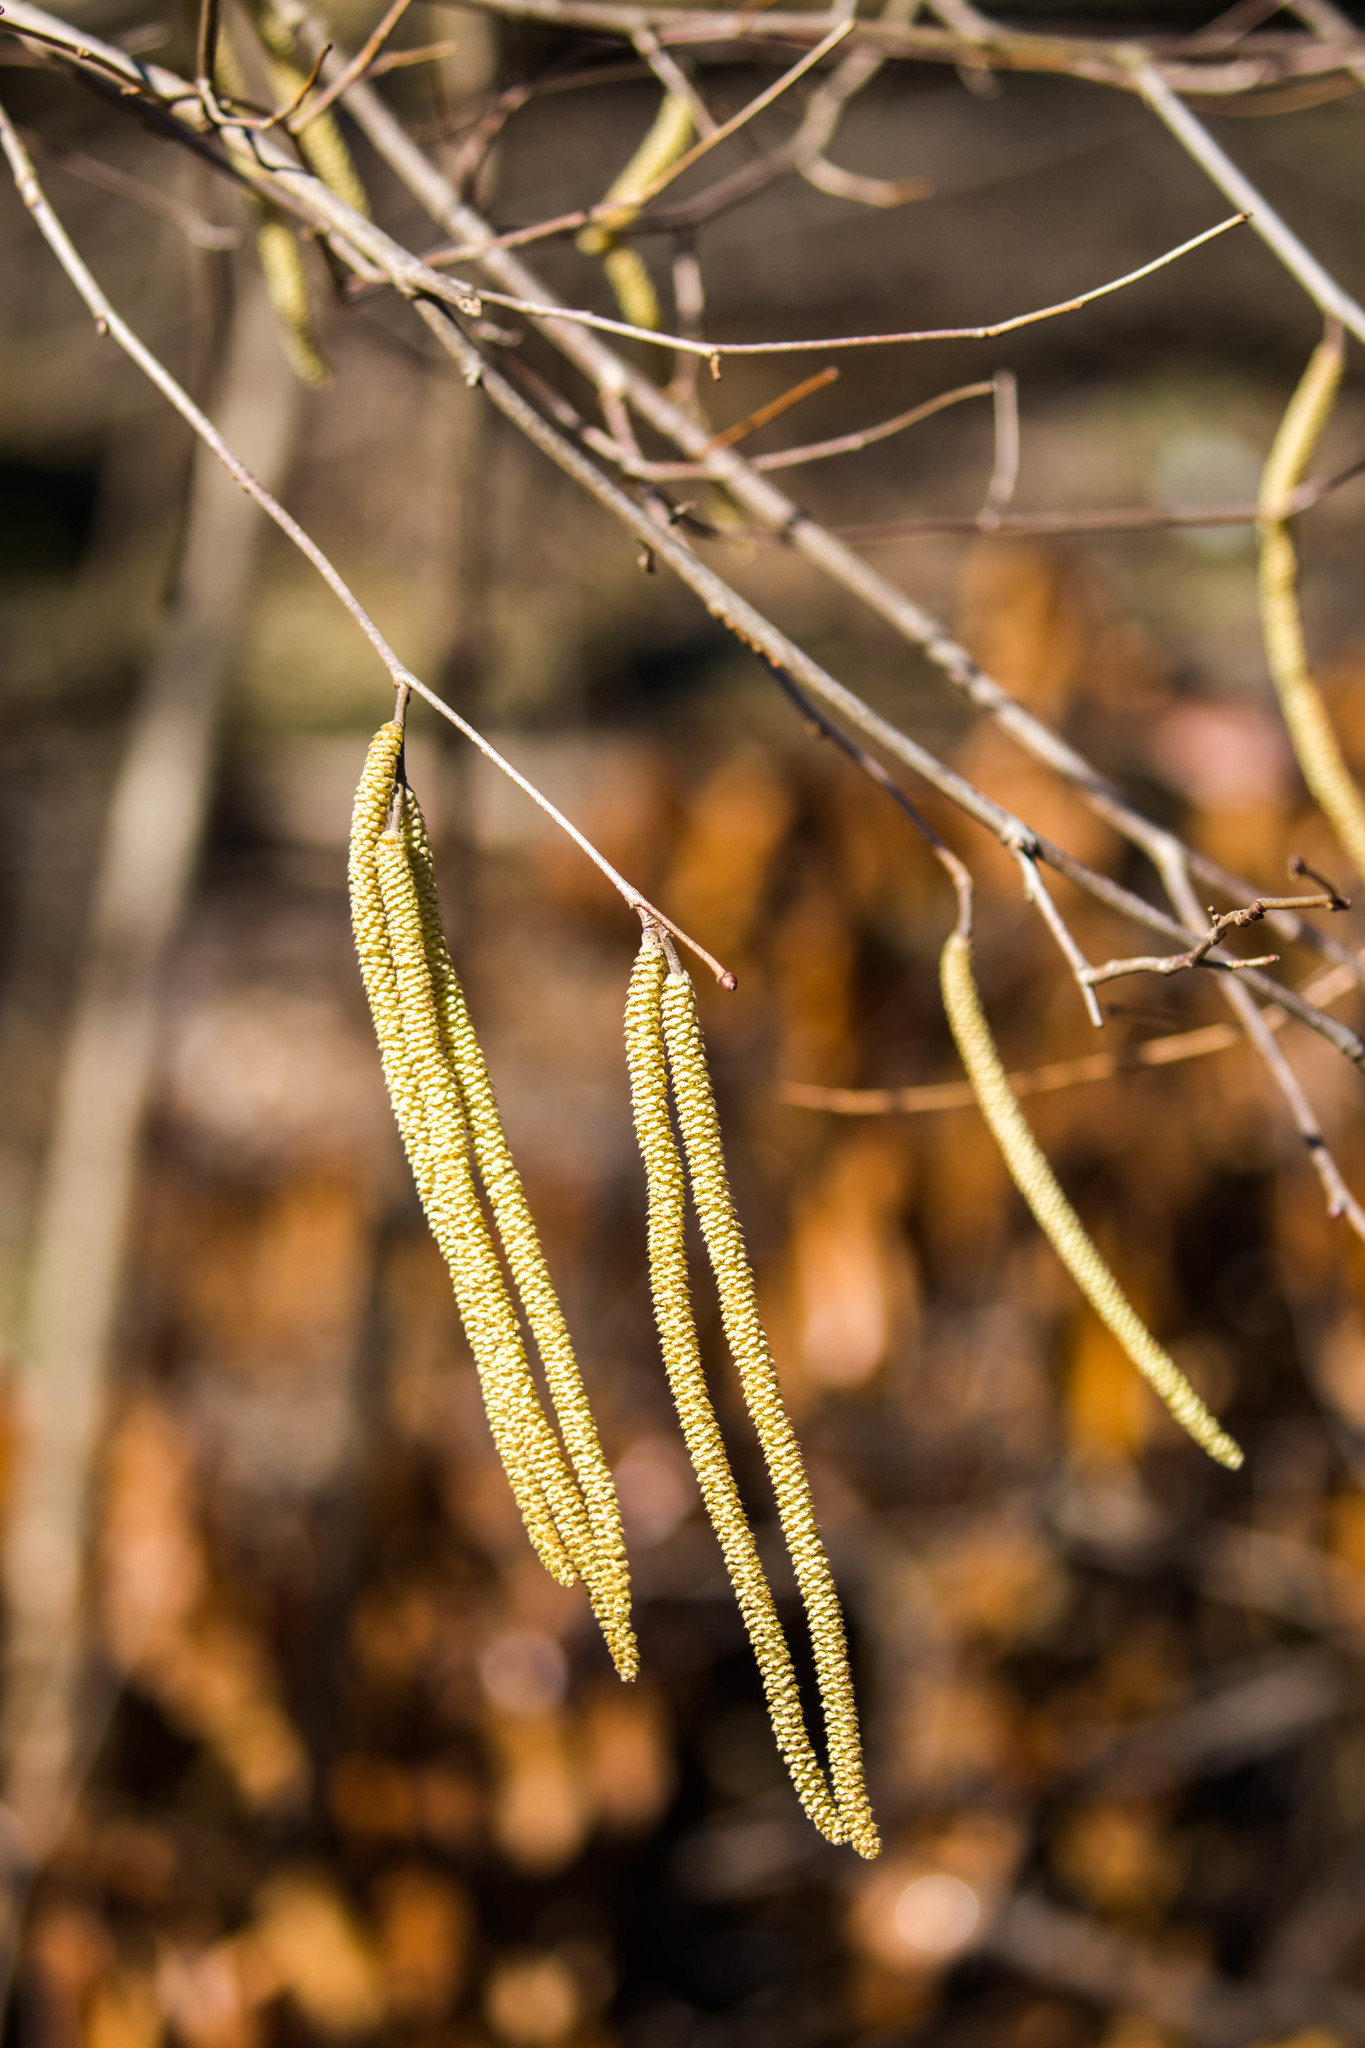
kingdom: Plantae
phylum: Tracheophyta
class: Magnoliopsida
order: Fagales
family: Betulaceae
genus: Corylus
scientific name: Corylus americana
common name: American hazel
